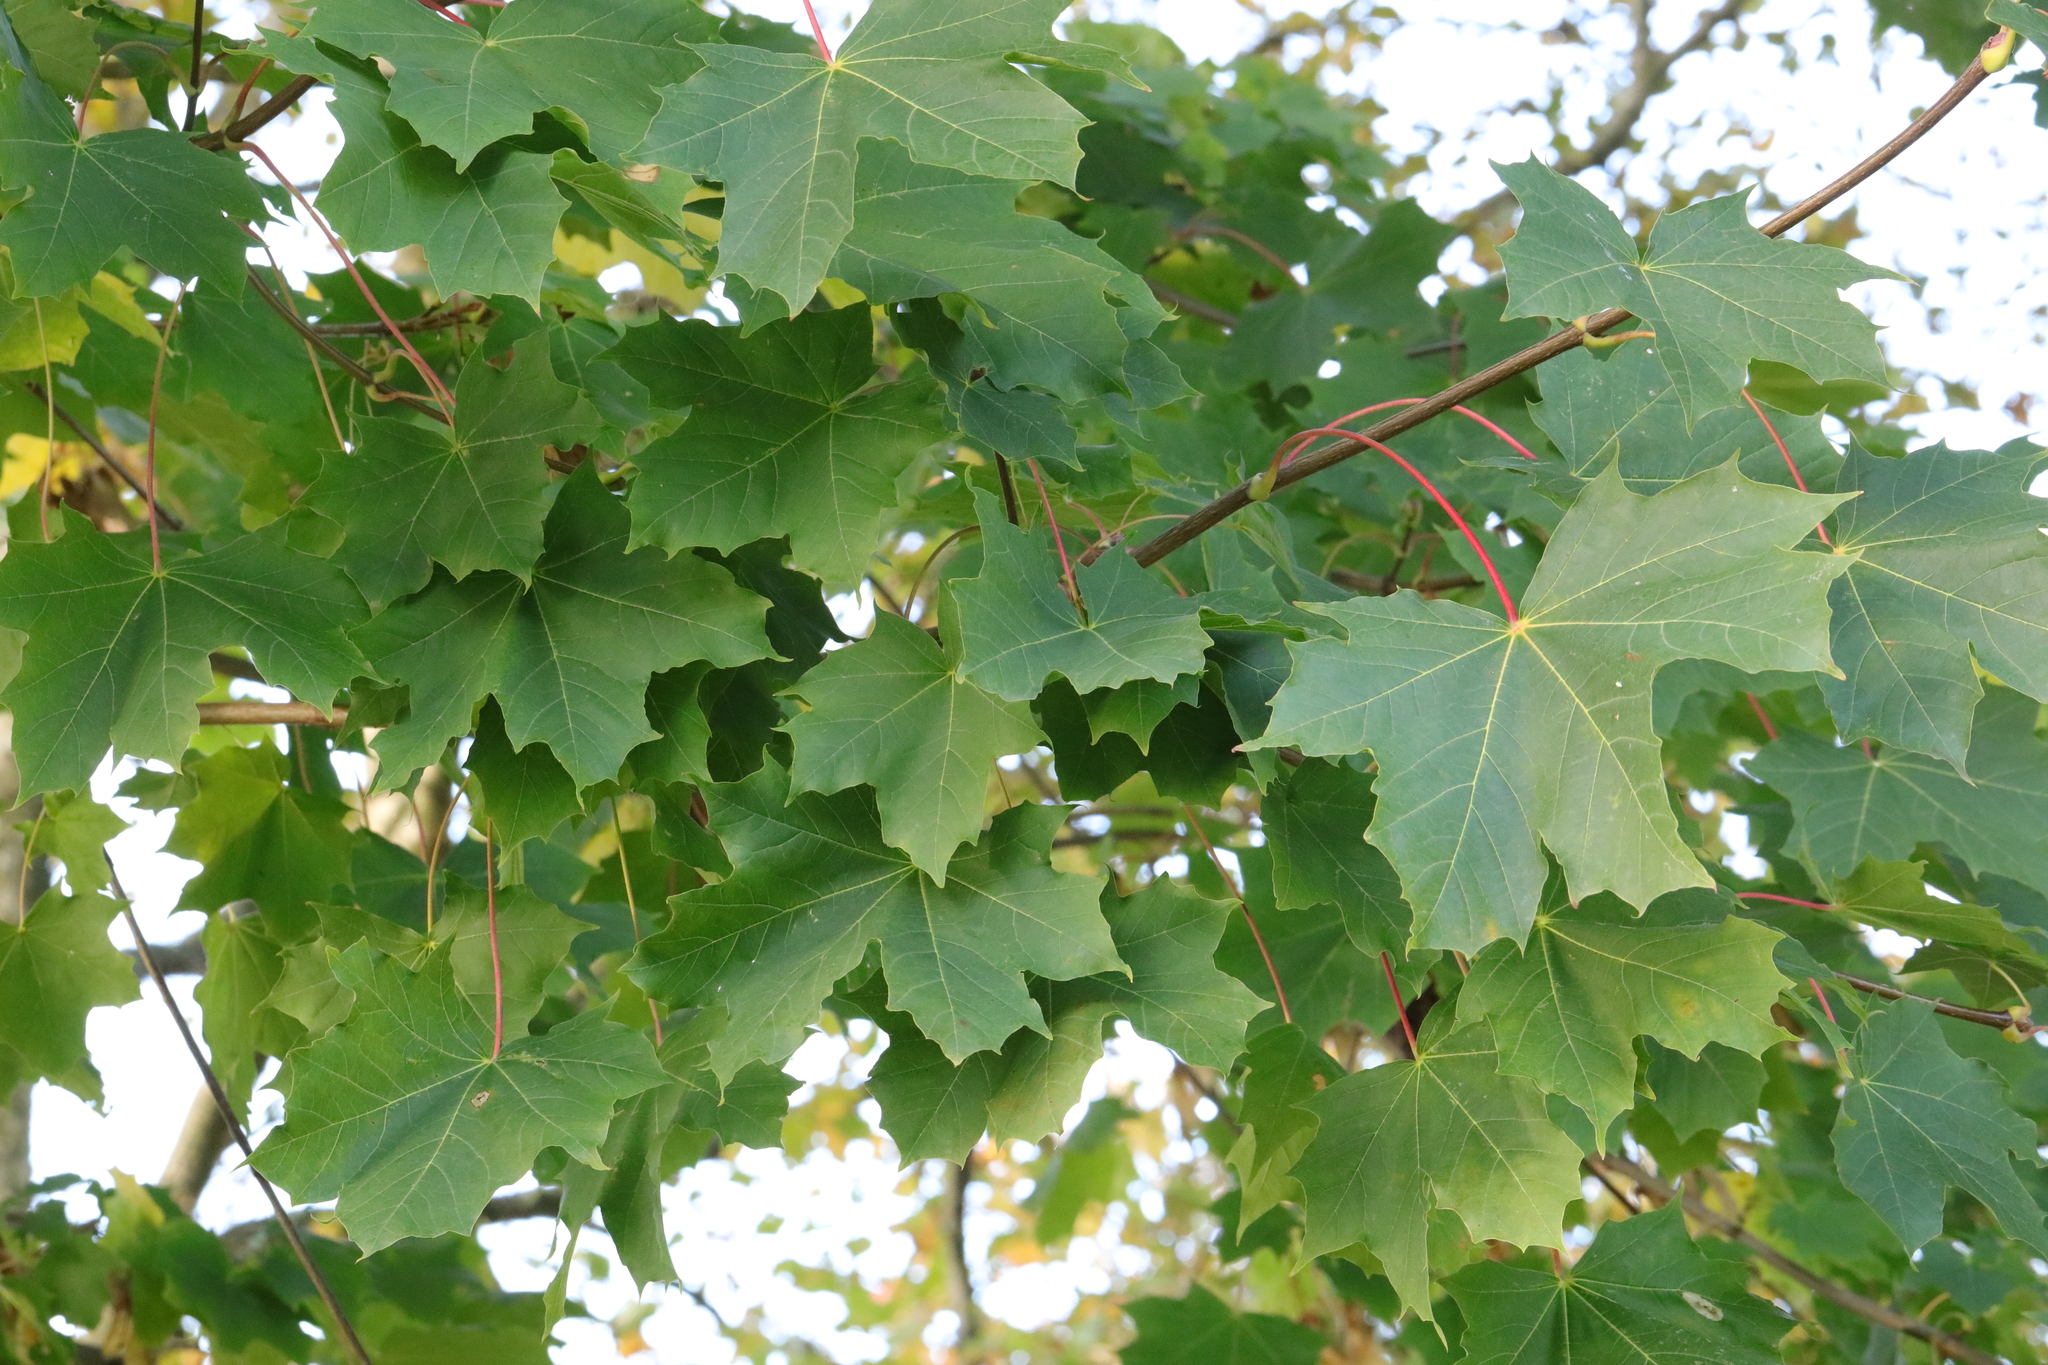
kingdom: Plantae
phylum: Tracheophyta
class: Magnoliopsida
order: Sapindales
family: Sapindaceae
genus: Acer
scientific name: Acer platanoides
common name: Norway maple
